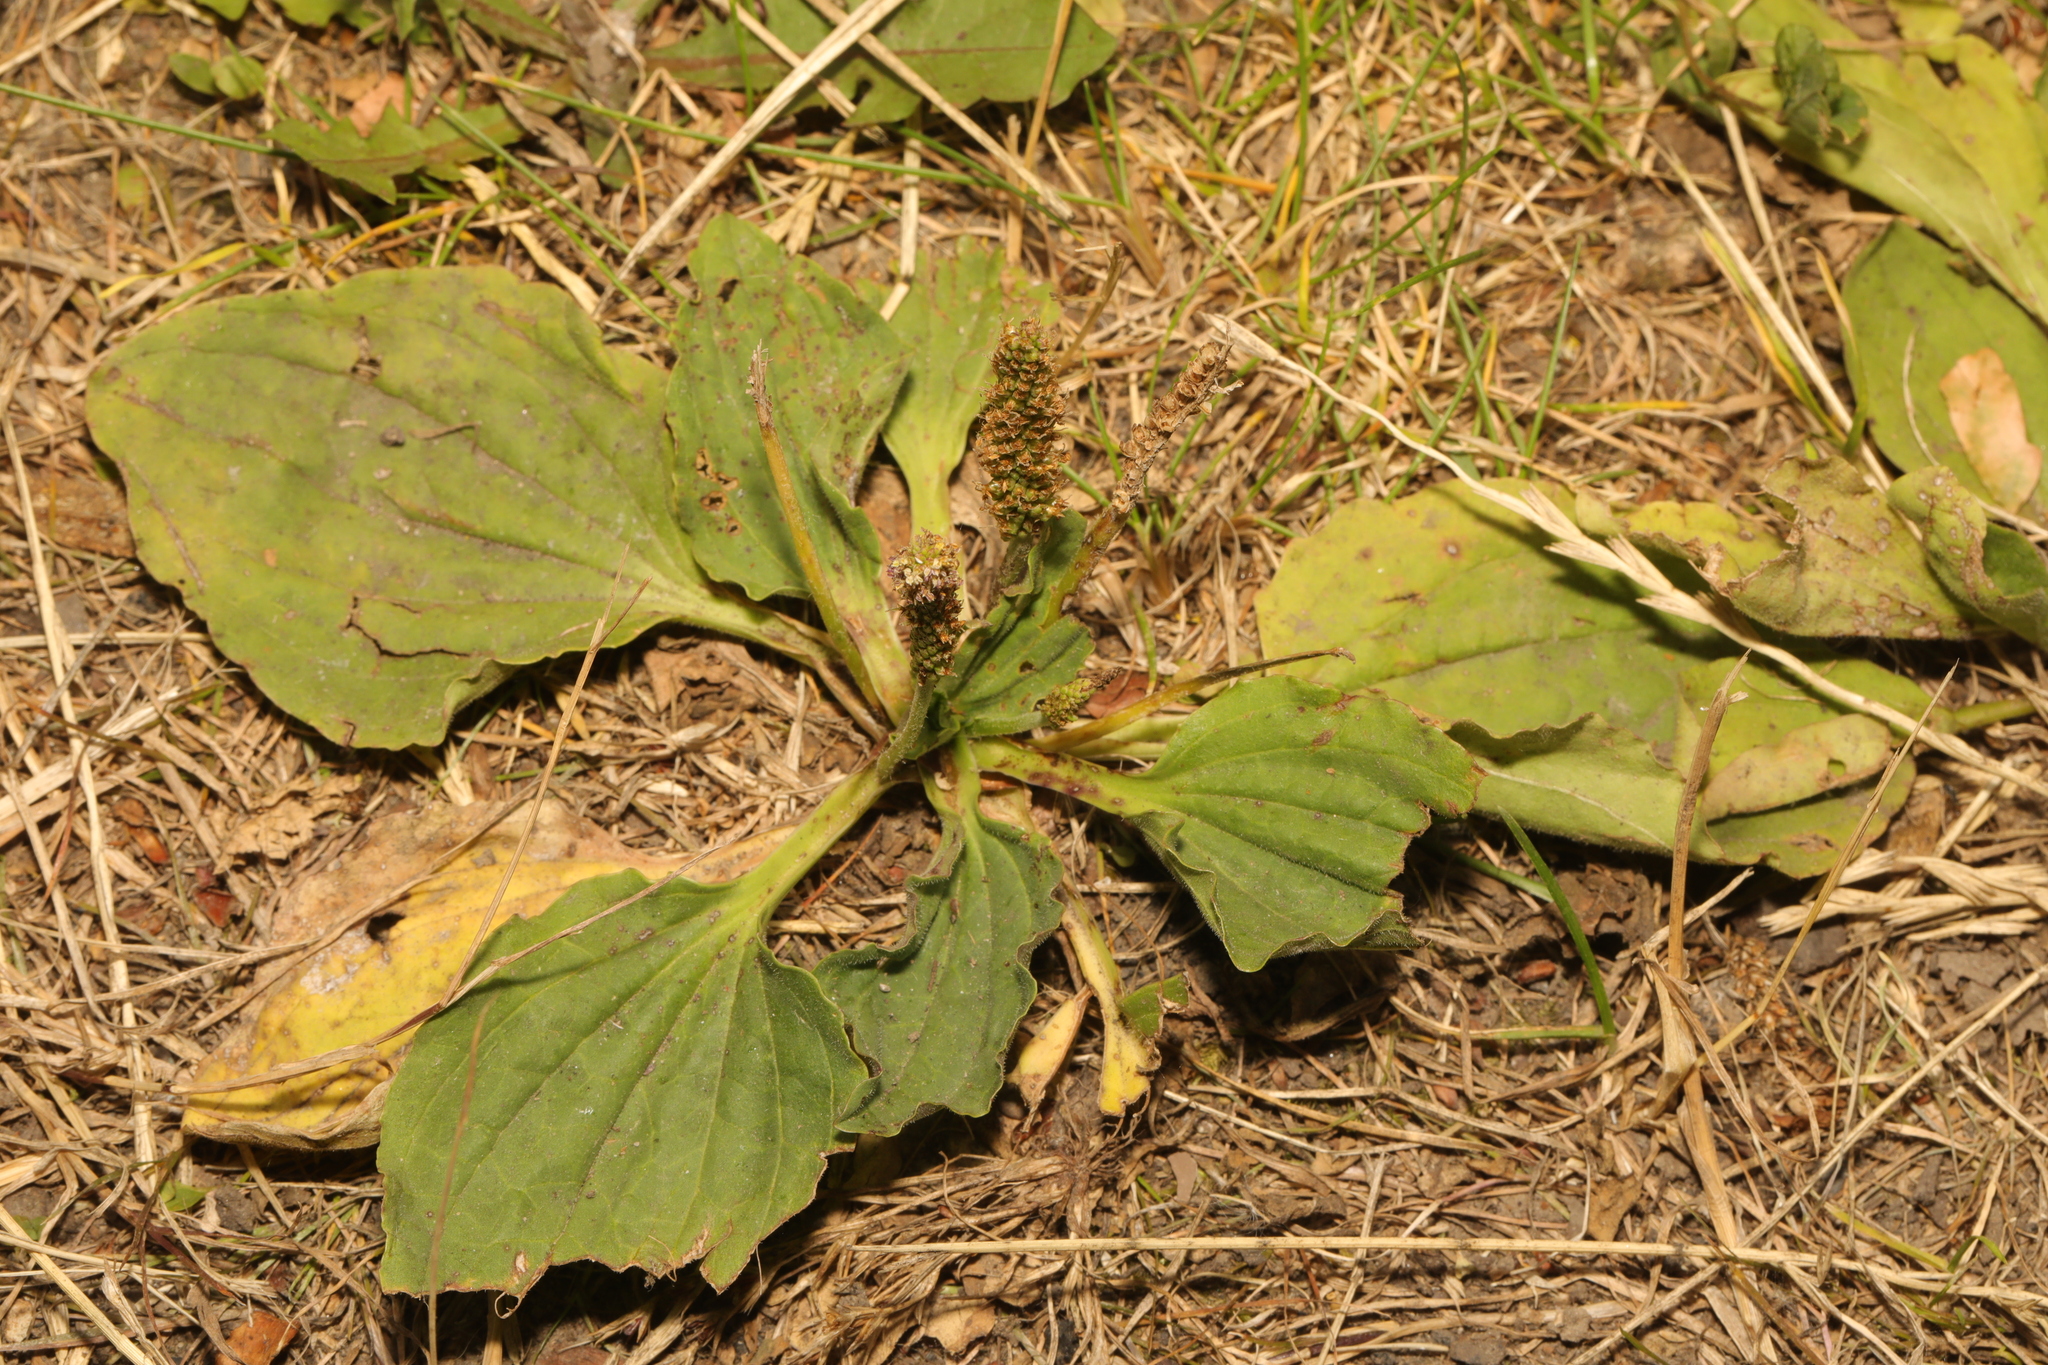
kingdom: Plantae
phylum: Tracheophyta
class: Magnoliopsida
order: Lamiales
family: Plantaginaceae
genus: Plantago
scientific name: Plantago major
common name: Common plantain
